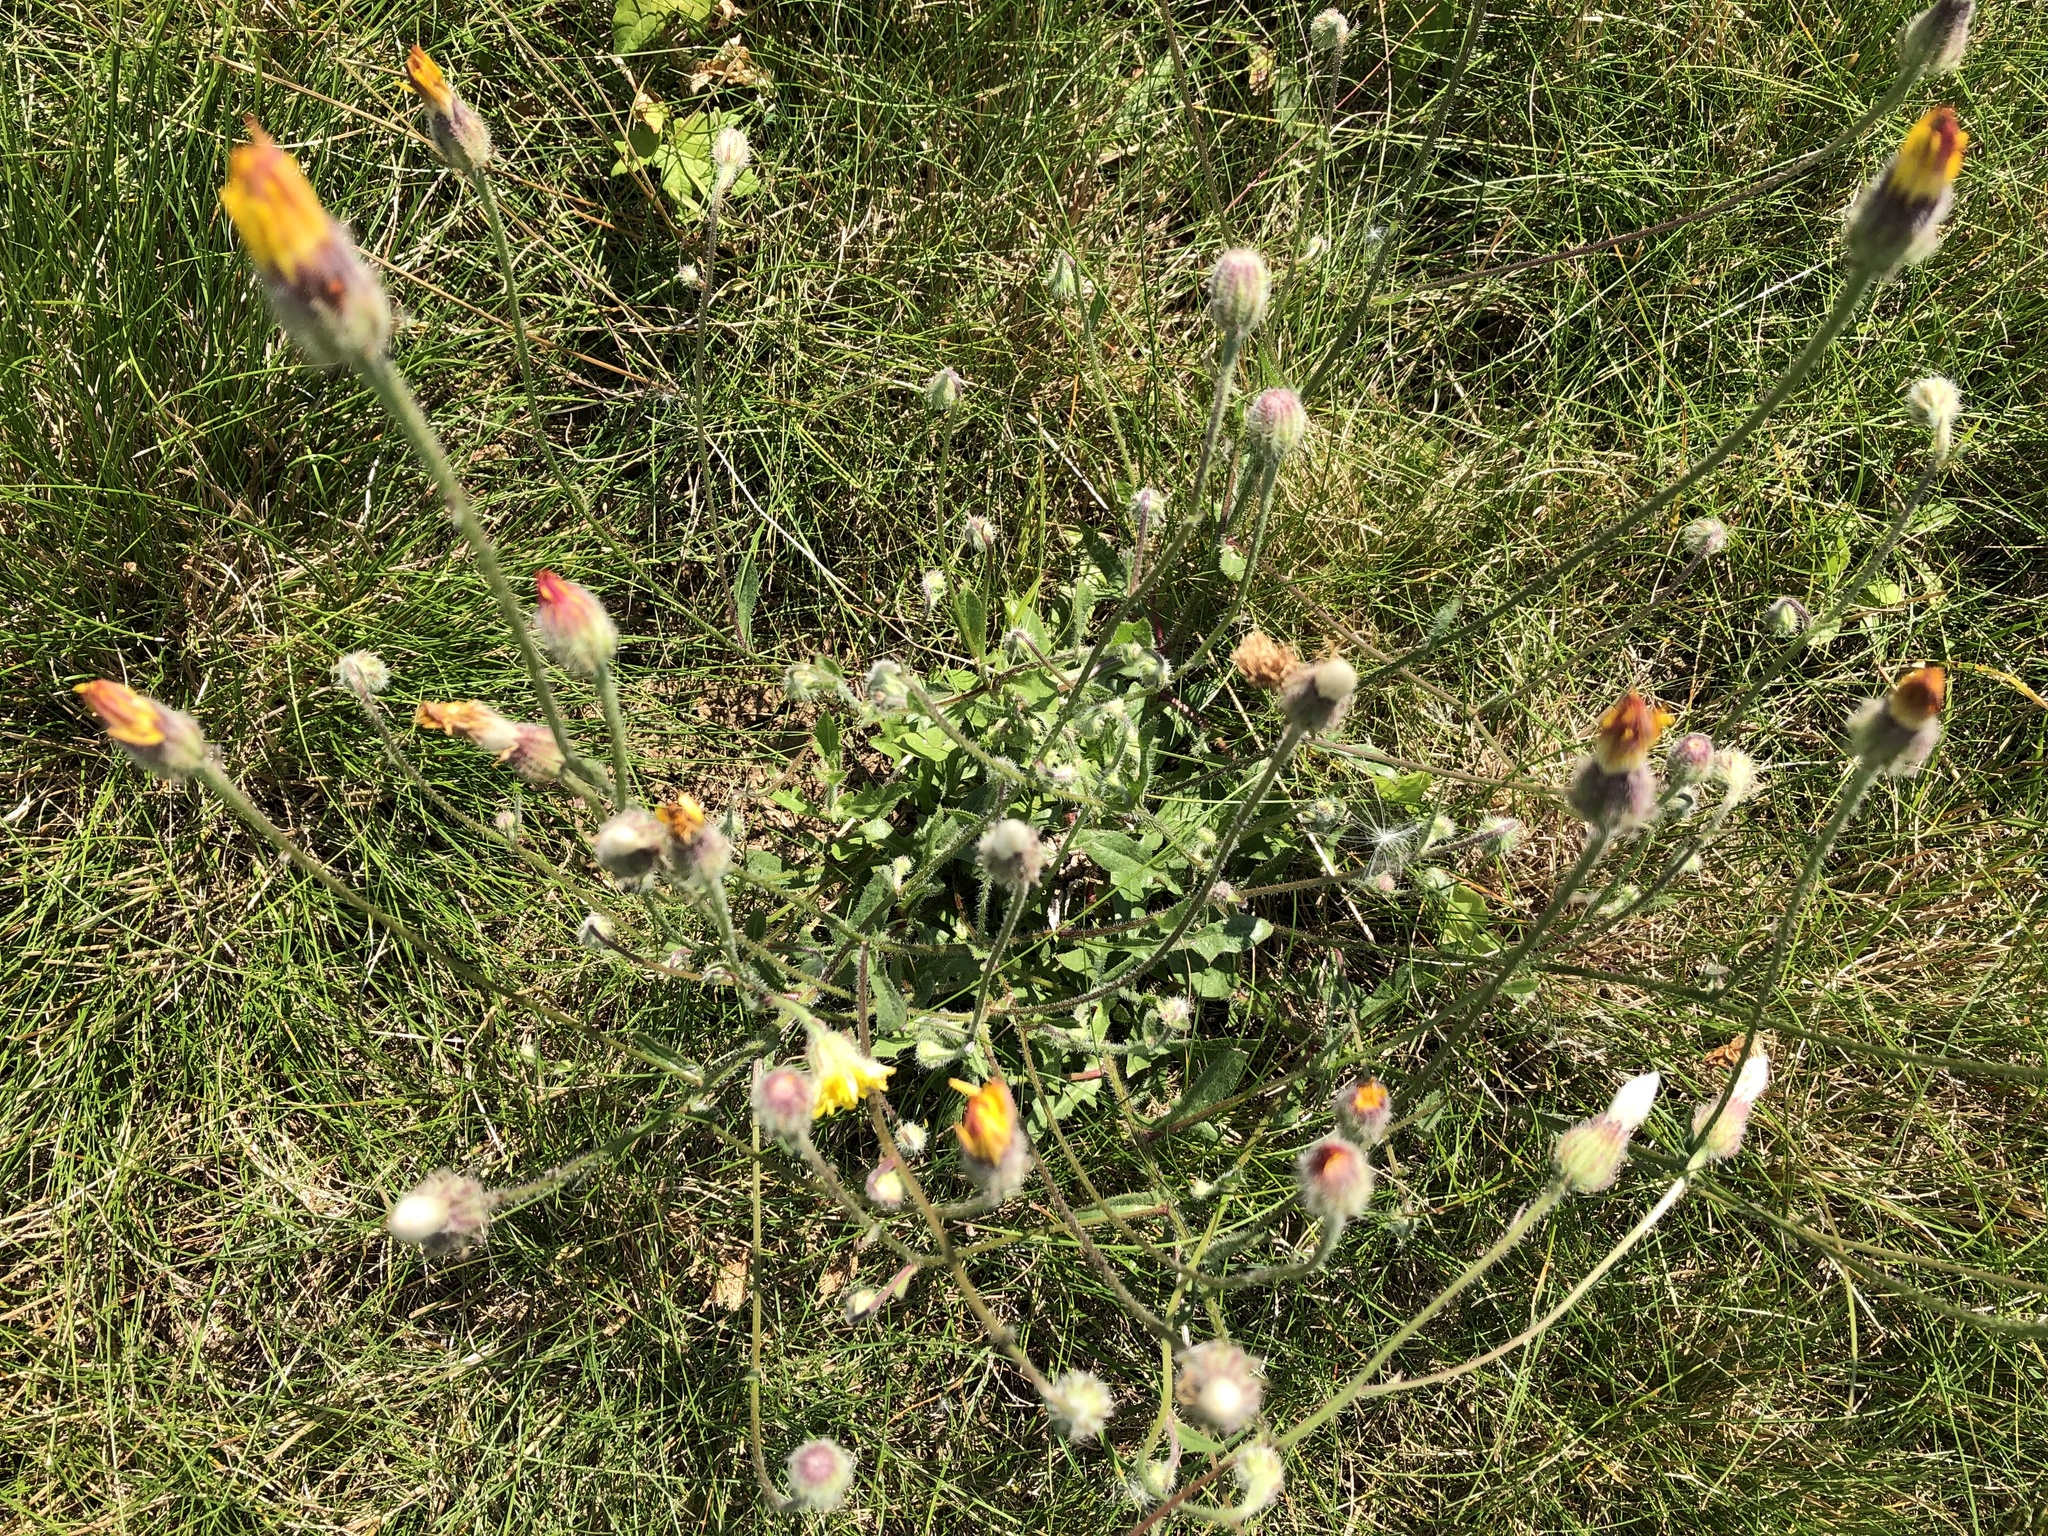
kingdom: Plantae
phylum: Tracheophyta
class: Magnoliopsida
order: Asterales
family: Asteraceae
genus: Crepis
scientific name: Crepis foetida
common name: Stinking hawk's-beard
